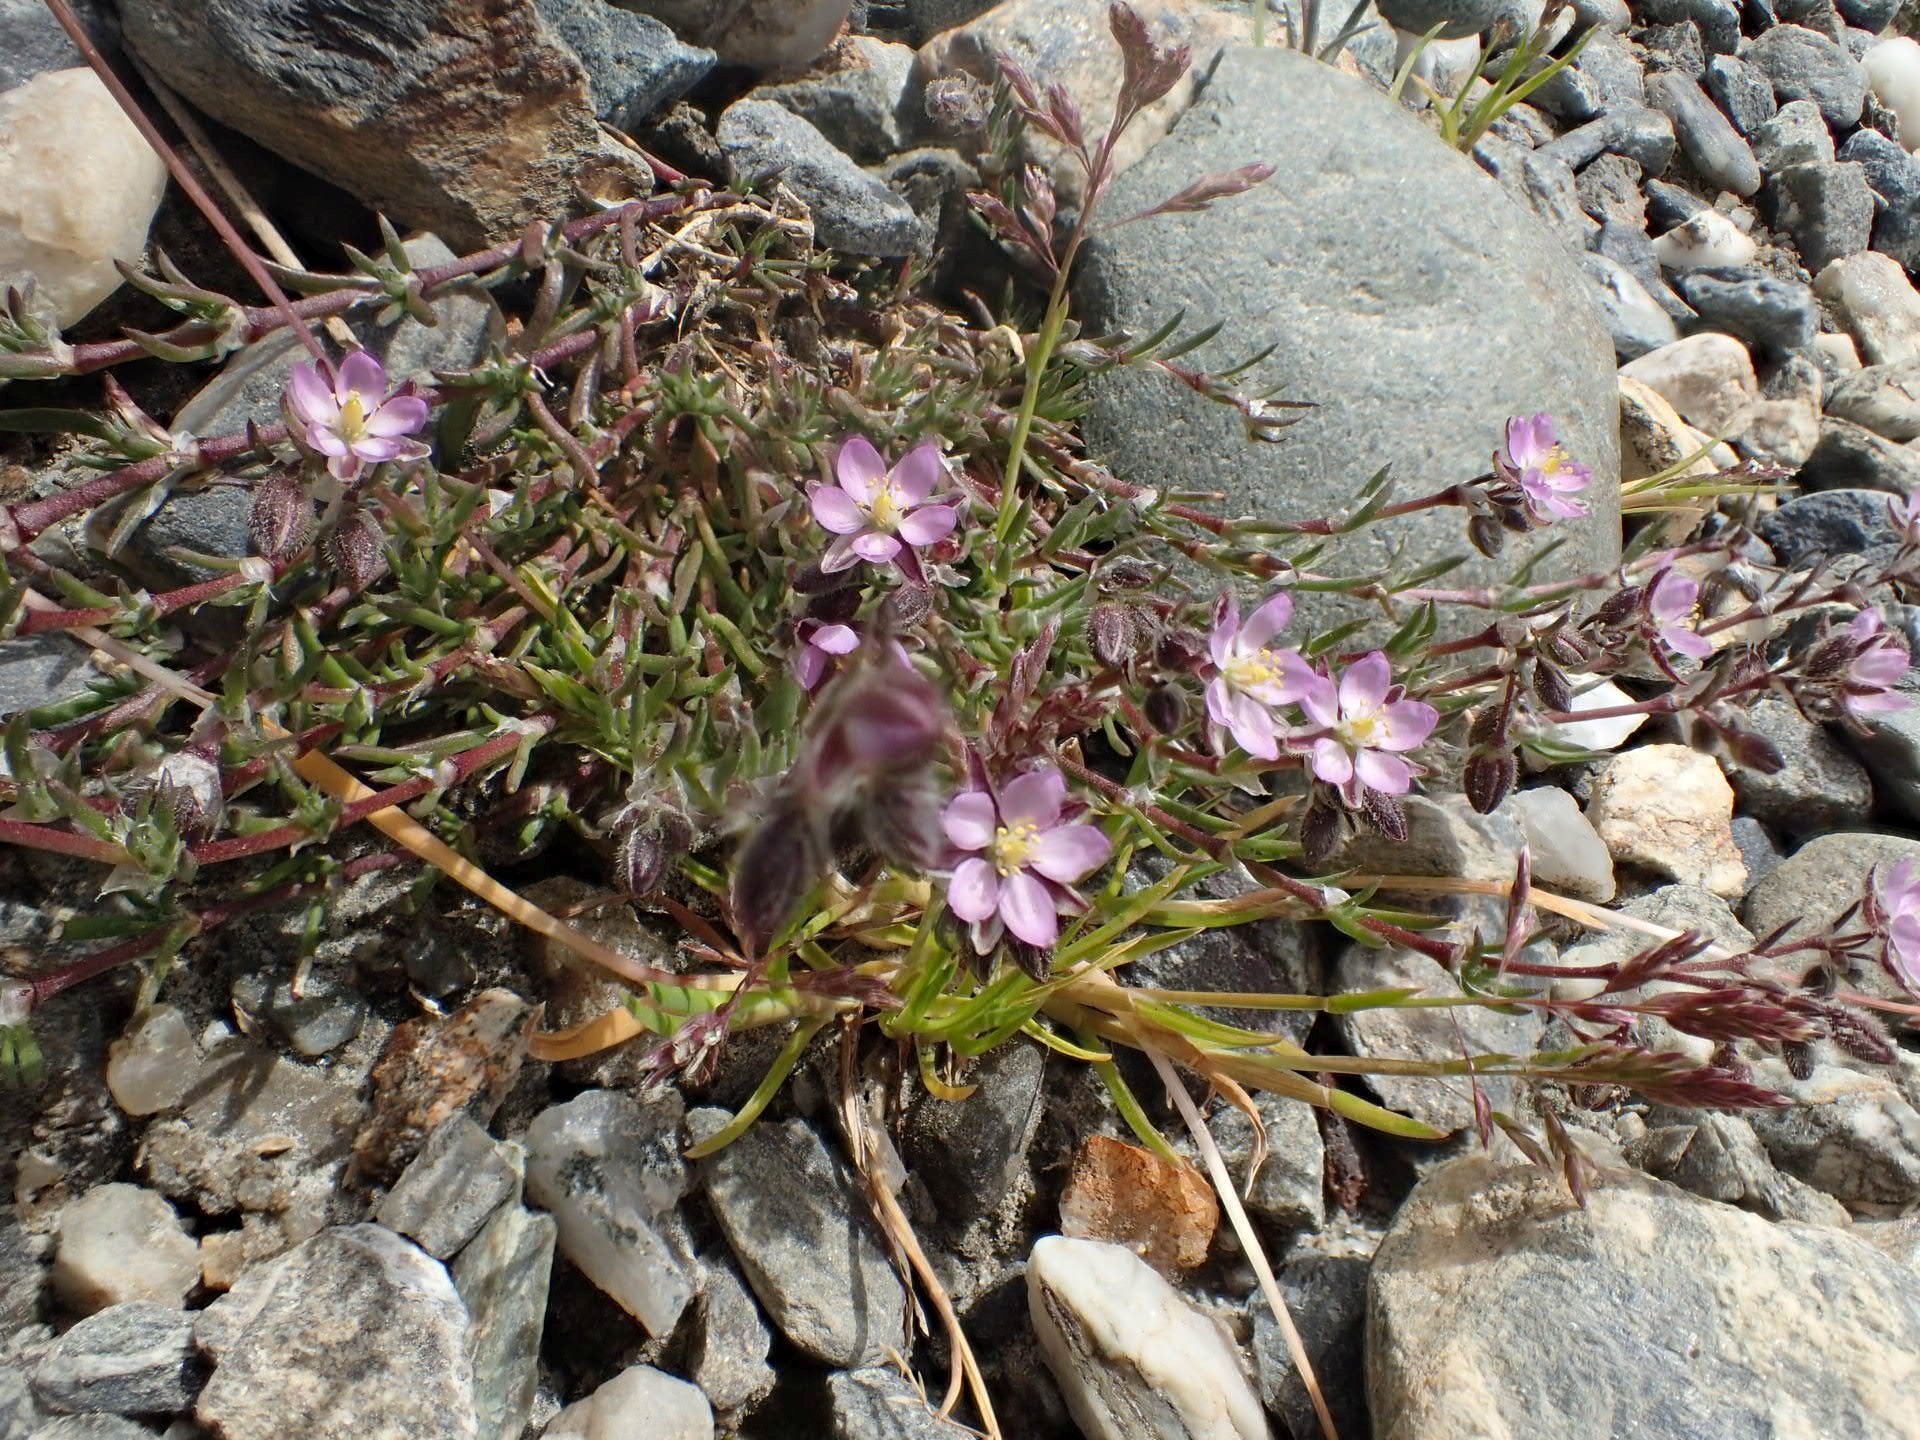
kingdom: Plantae
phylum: Tracheophyta
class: Magnoliopsida
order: Caryophyllales
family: Caryophyllaceae
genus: Spergularia
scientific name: Spergularia rubra
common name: Red sand-spurrey
